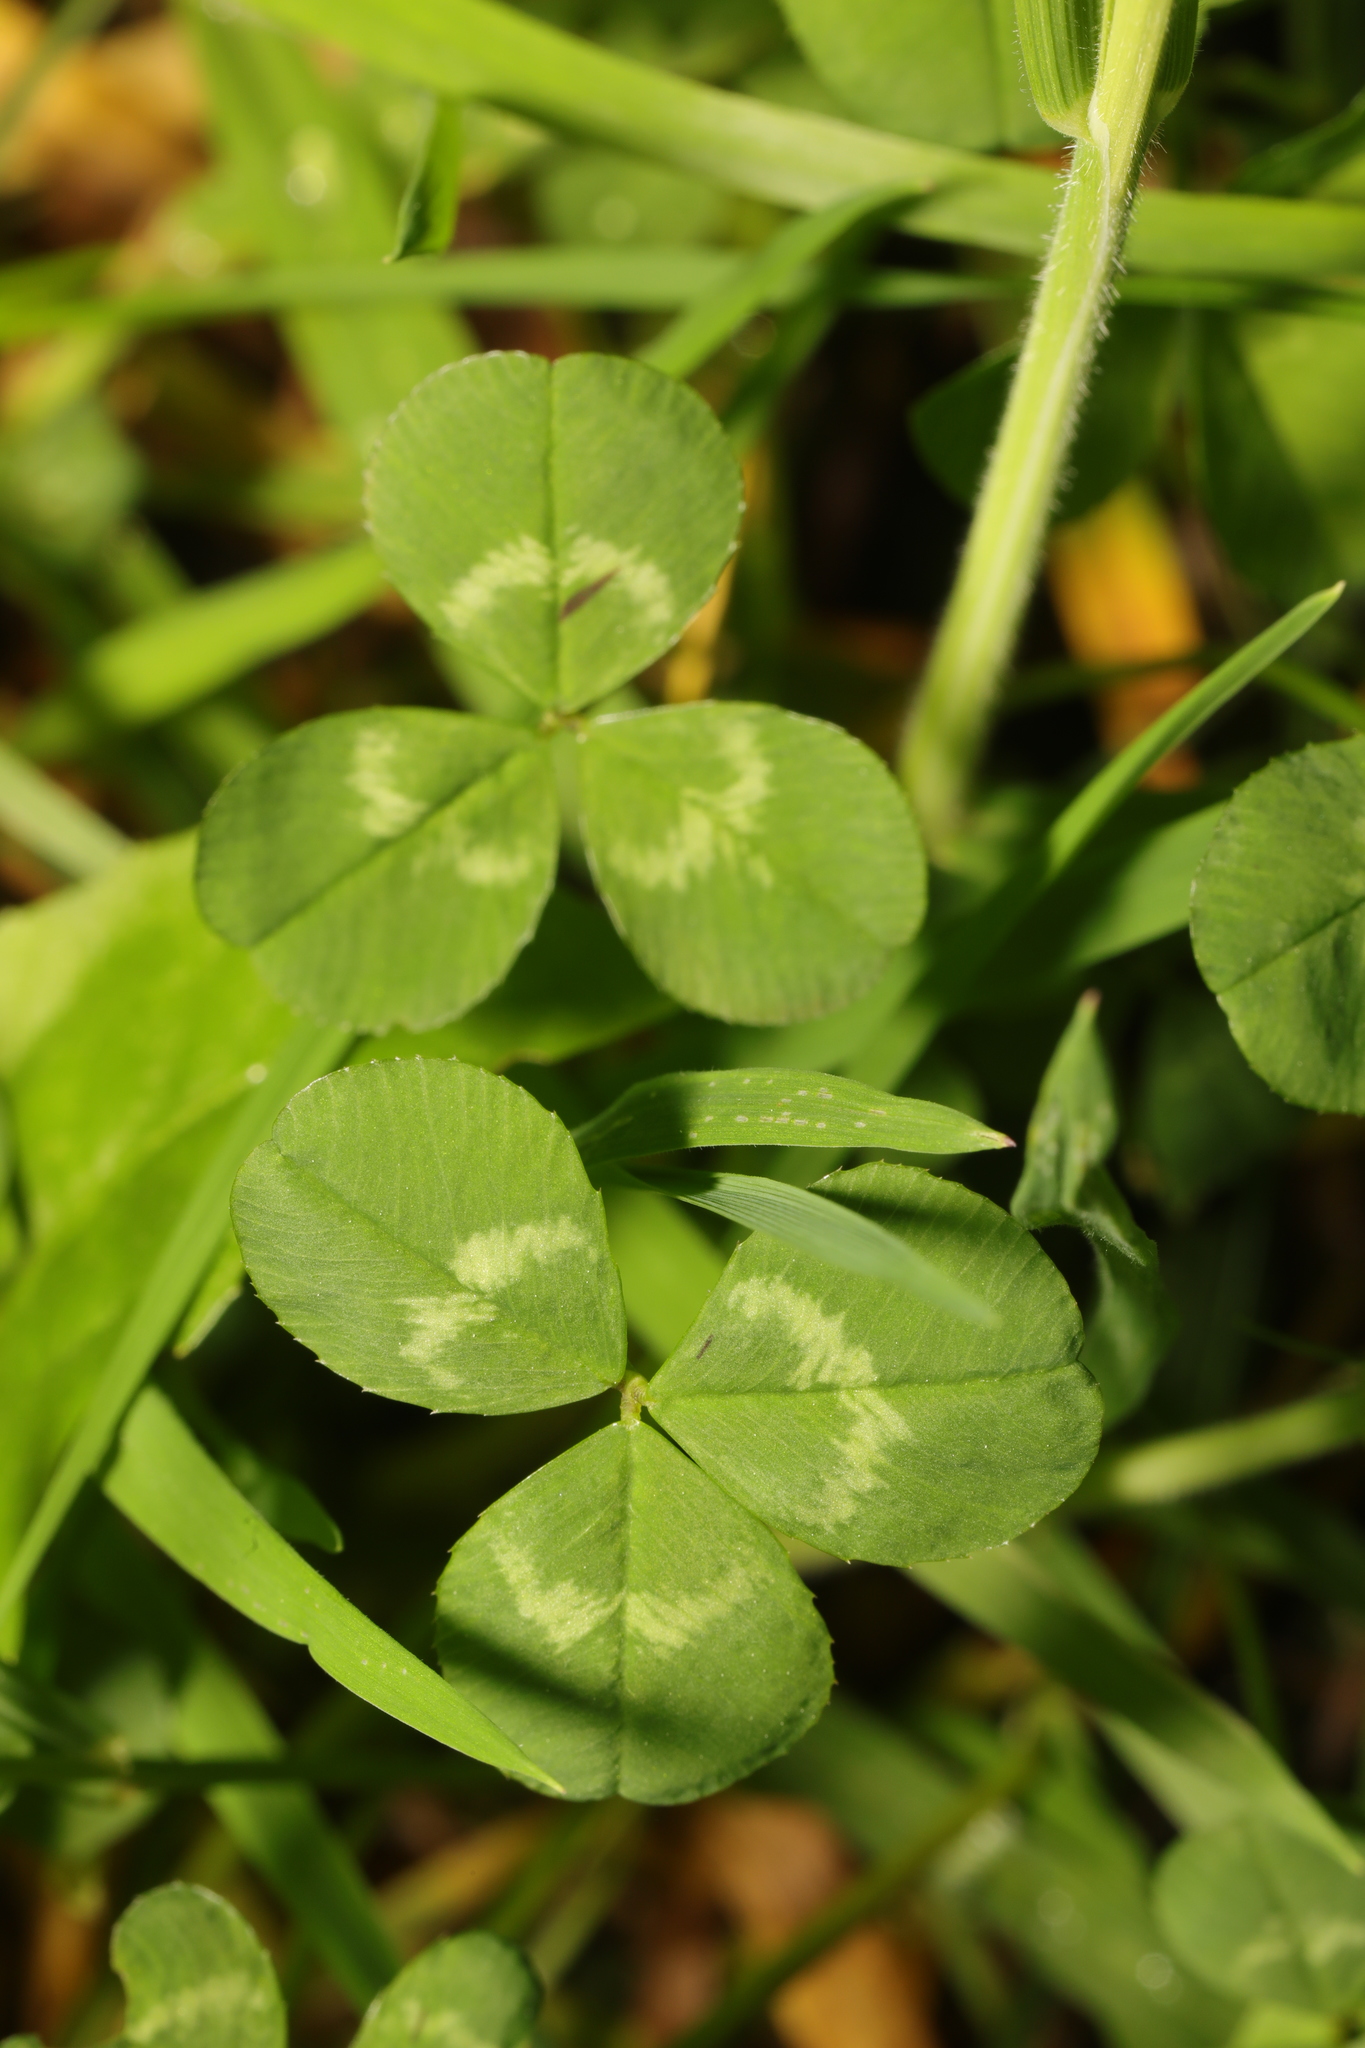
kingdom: Plantae
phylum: Tracheophyta
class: Magnoliopsida
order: Fabales
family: Fabaceae
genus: Trifolium
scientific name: Trifolium repens
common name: White clover
